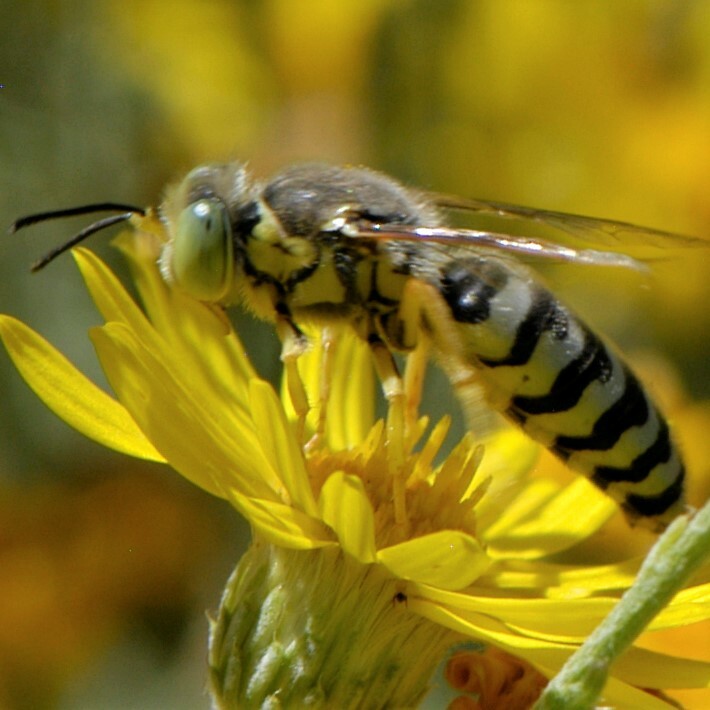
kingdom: Animalia
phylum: Arthropoda
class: Insecta
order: Hymenoptera
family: Crabronidae
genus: Bembix
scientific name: Bembix americana
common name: American sand wasp
